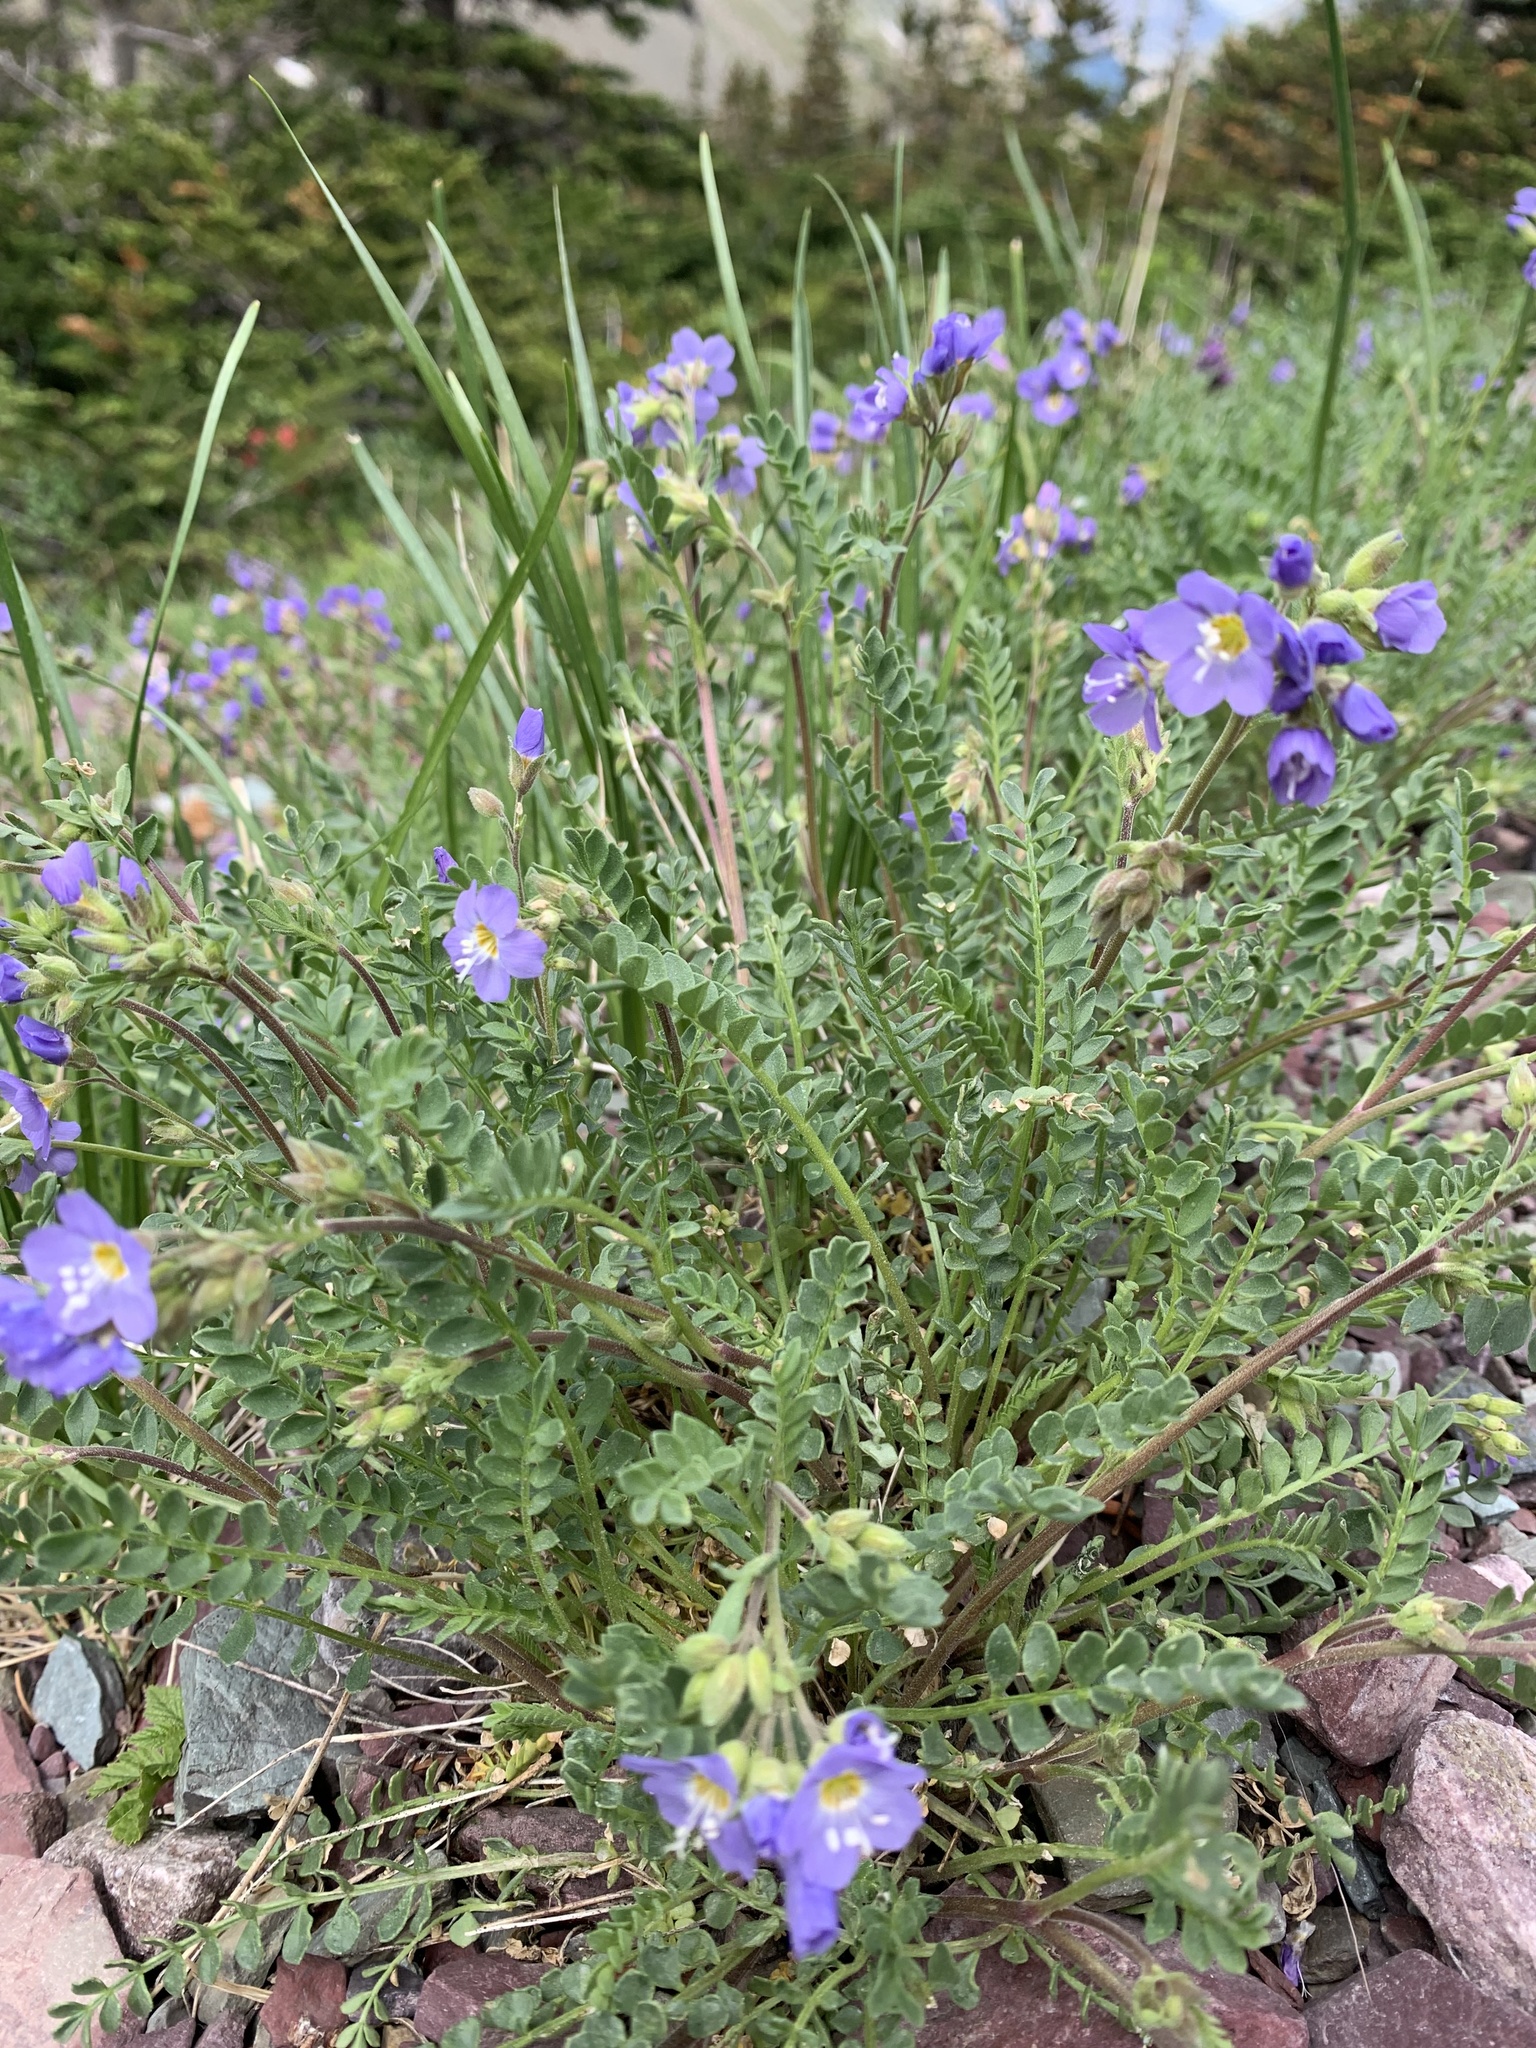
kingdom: Plantae
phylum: Tracheophyta
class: Magnoliopsida
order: Ericales
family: Polemoniaceae
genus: Polemonium
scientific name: Polemonium pulcherrimum
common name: Short jacob's-ladder
